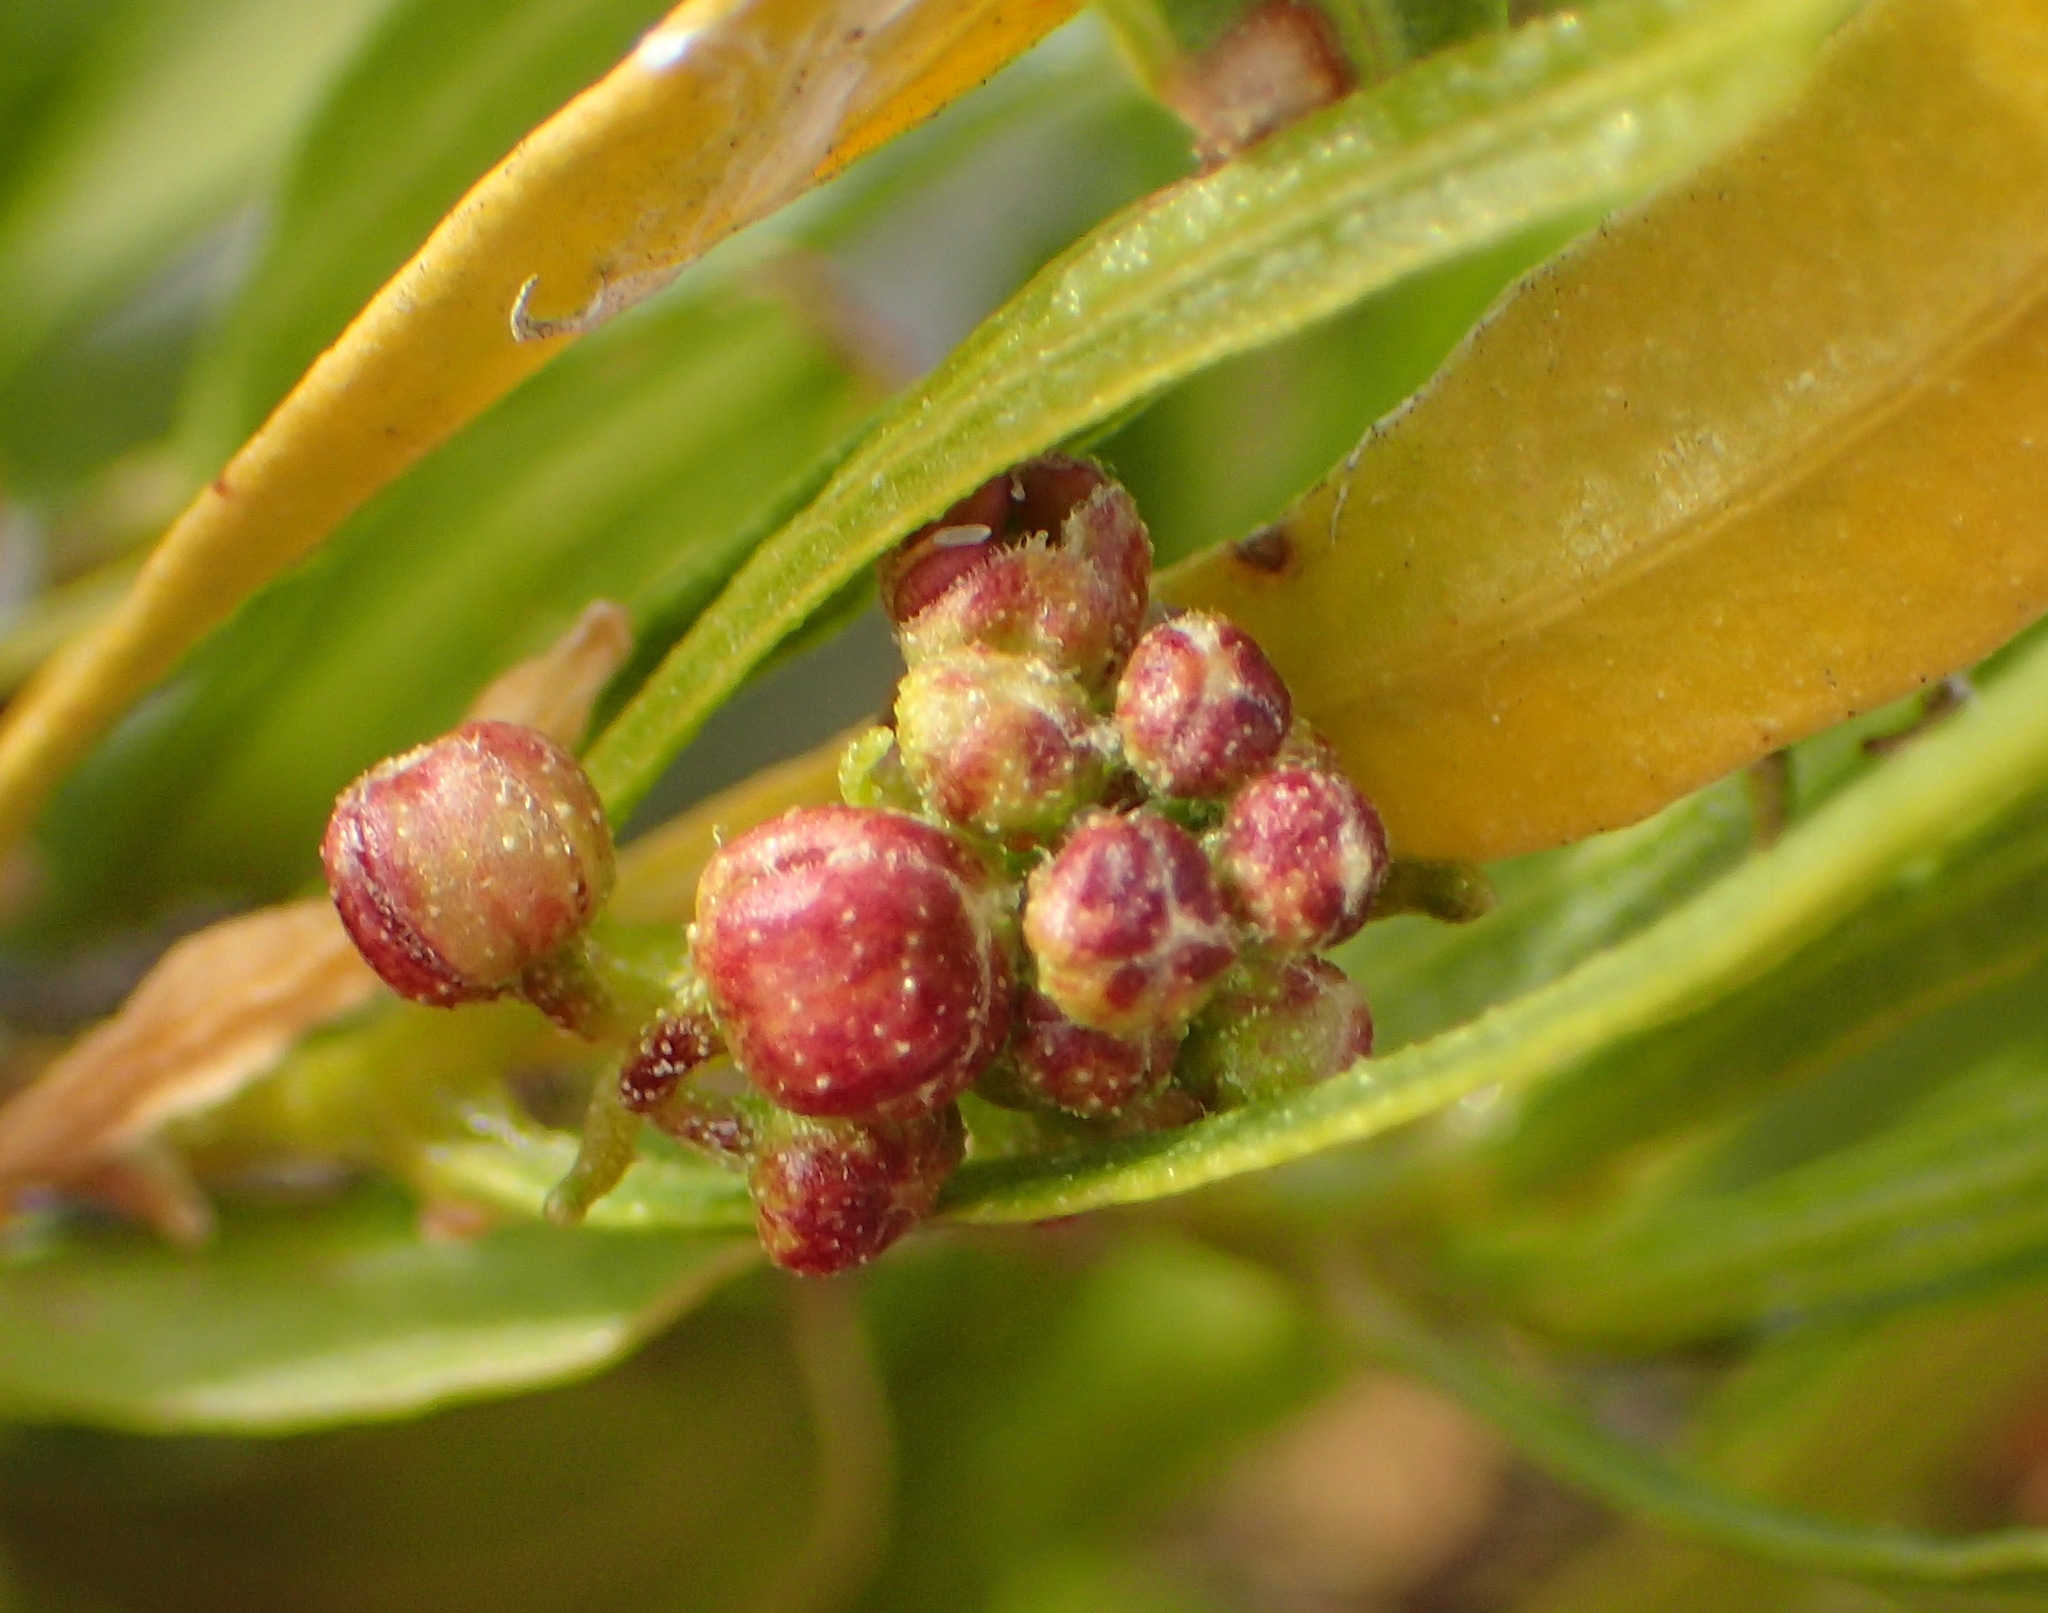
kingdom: Plantae
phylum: Tracheophyta
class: Magnoliopsida
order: Sapindales
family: Sapindaceae
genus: Dodonaea
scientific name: Dodonaea viscosa
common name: Hopbush
